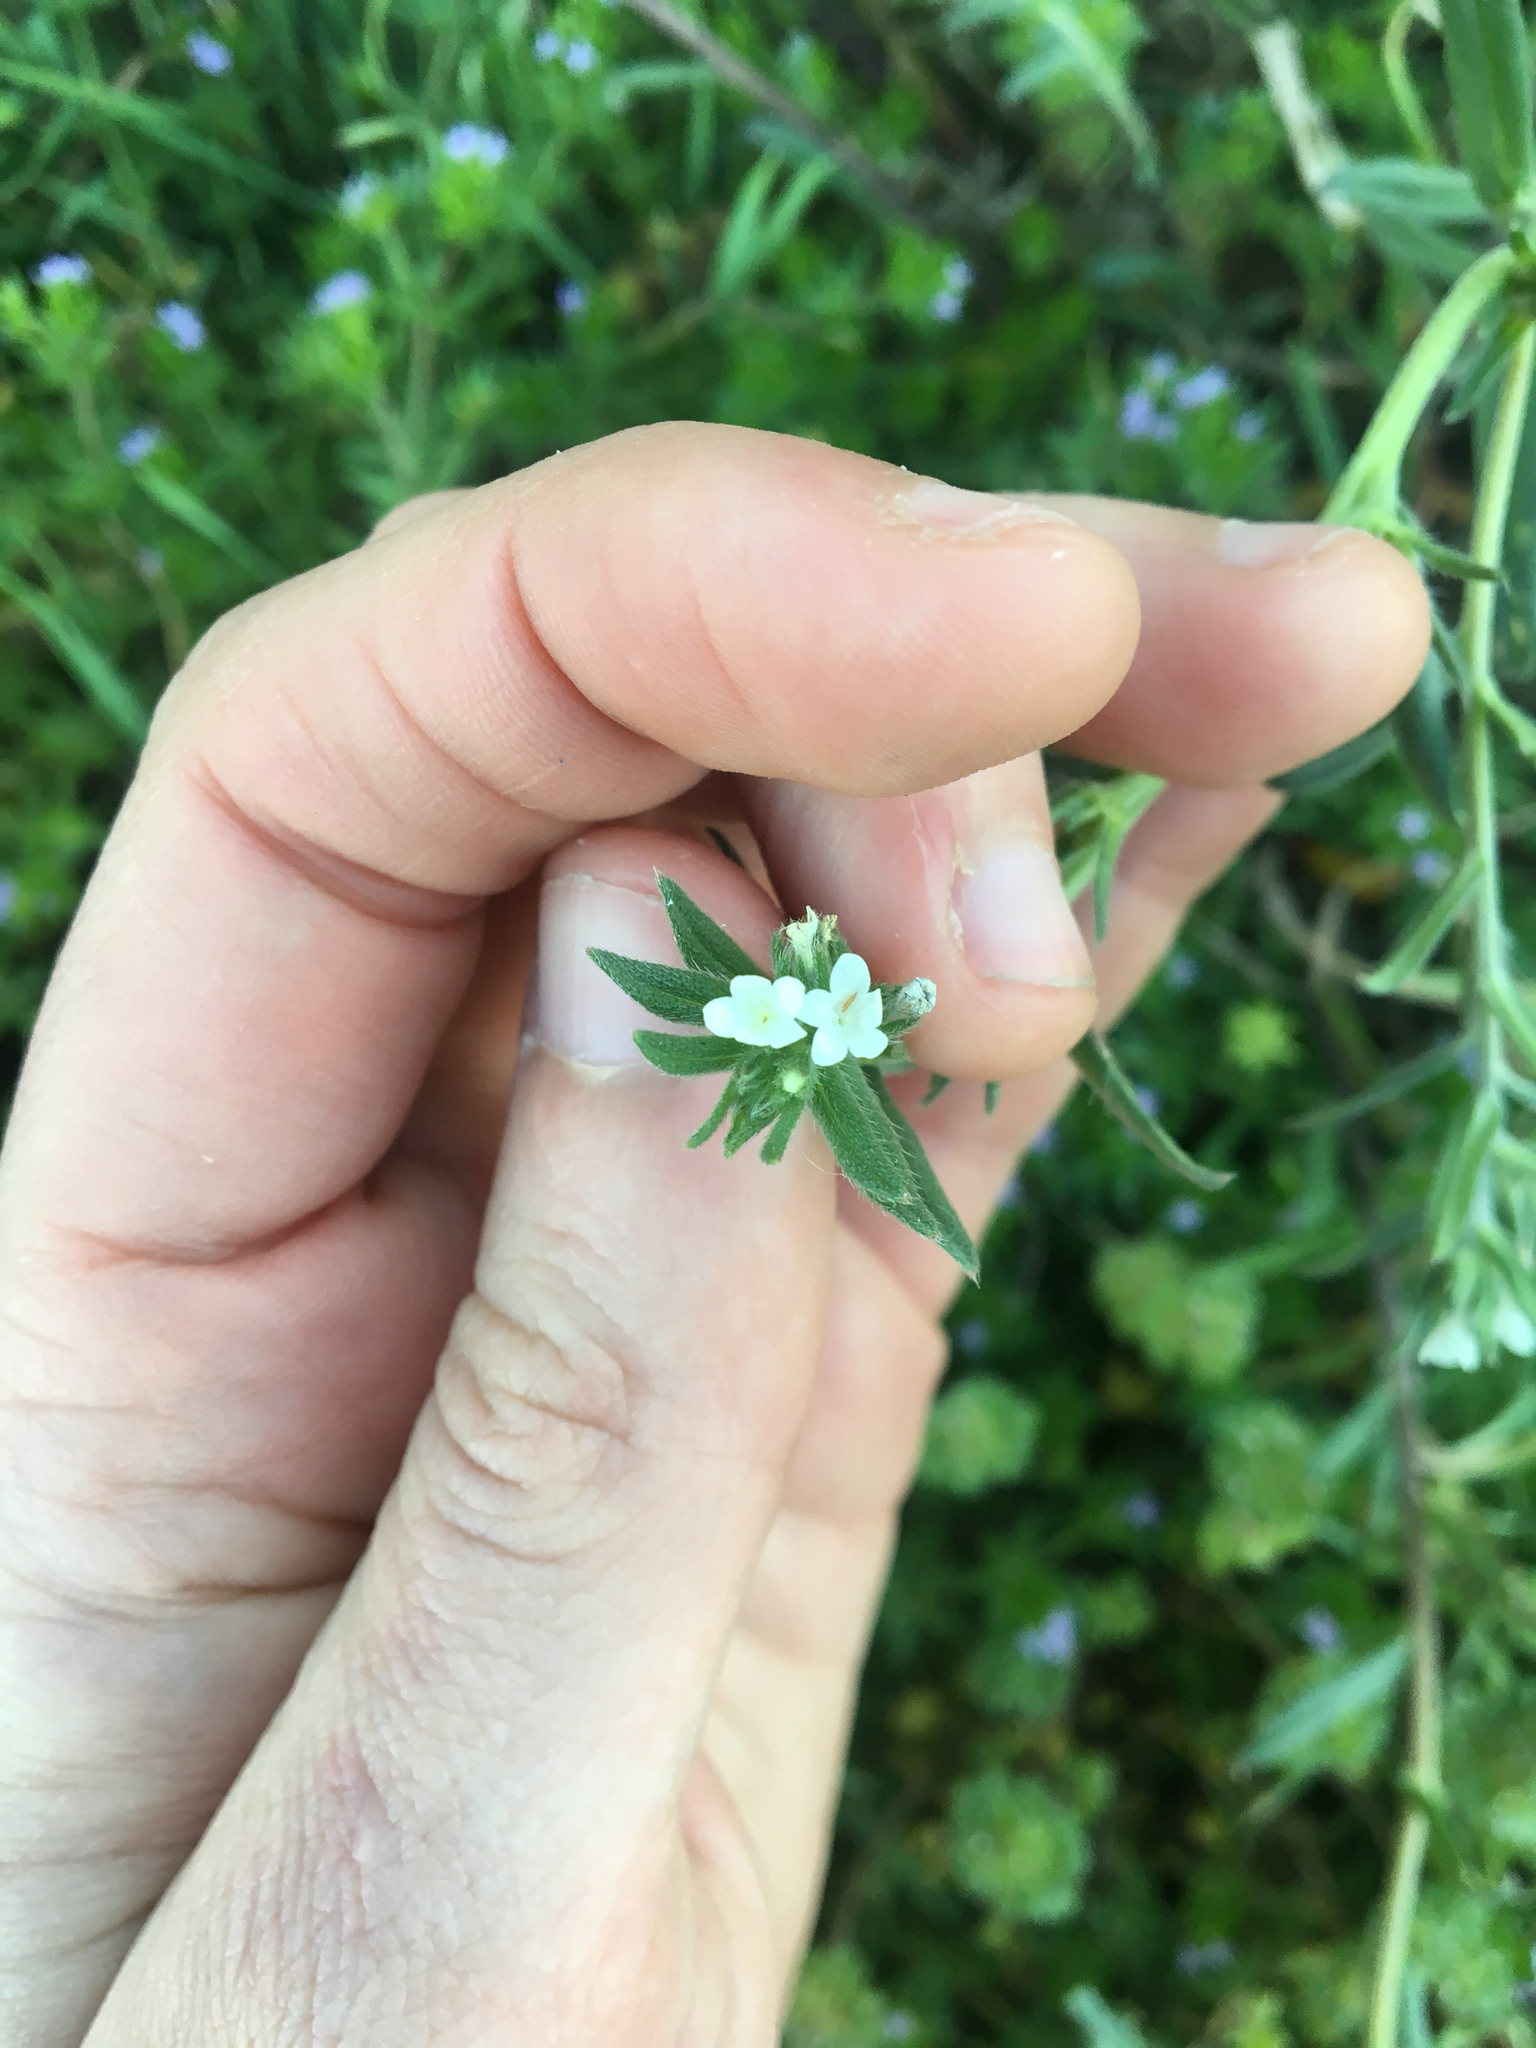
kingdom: Plantae
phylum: Tracheophyta
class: Magnoliopsida
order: Boraginales
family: Boraginaceae
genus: Buglossoides
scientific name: Buglossoides arvensis
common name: Corn gromwell
